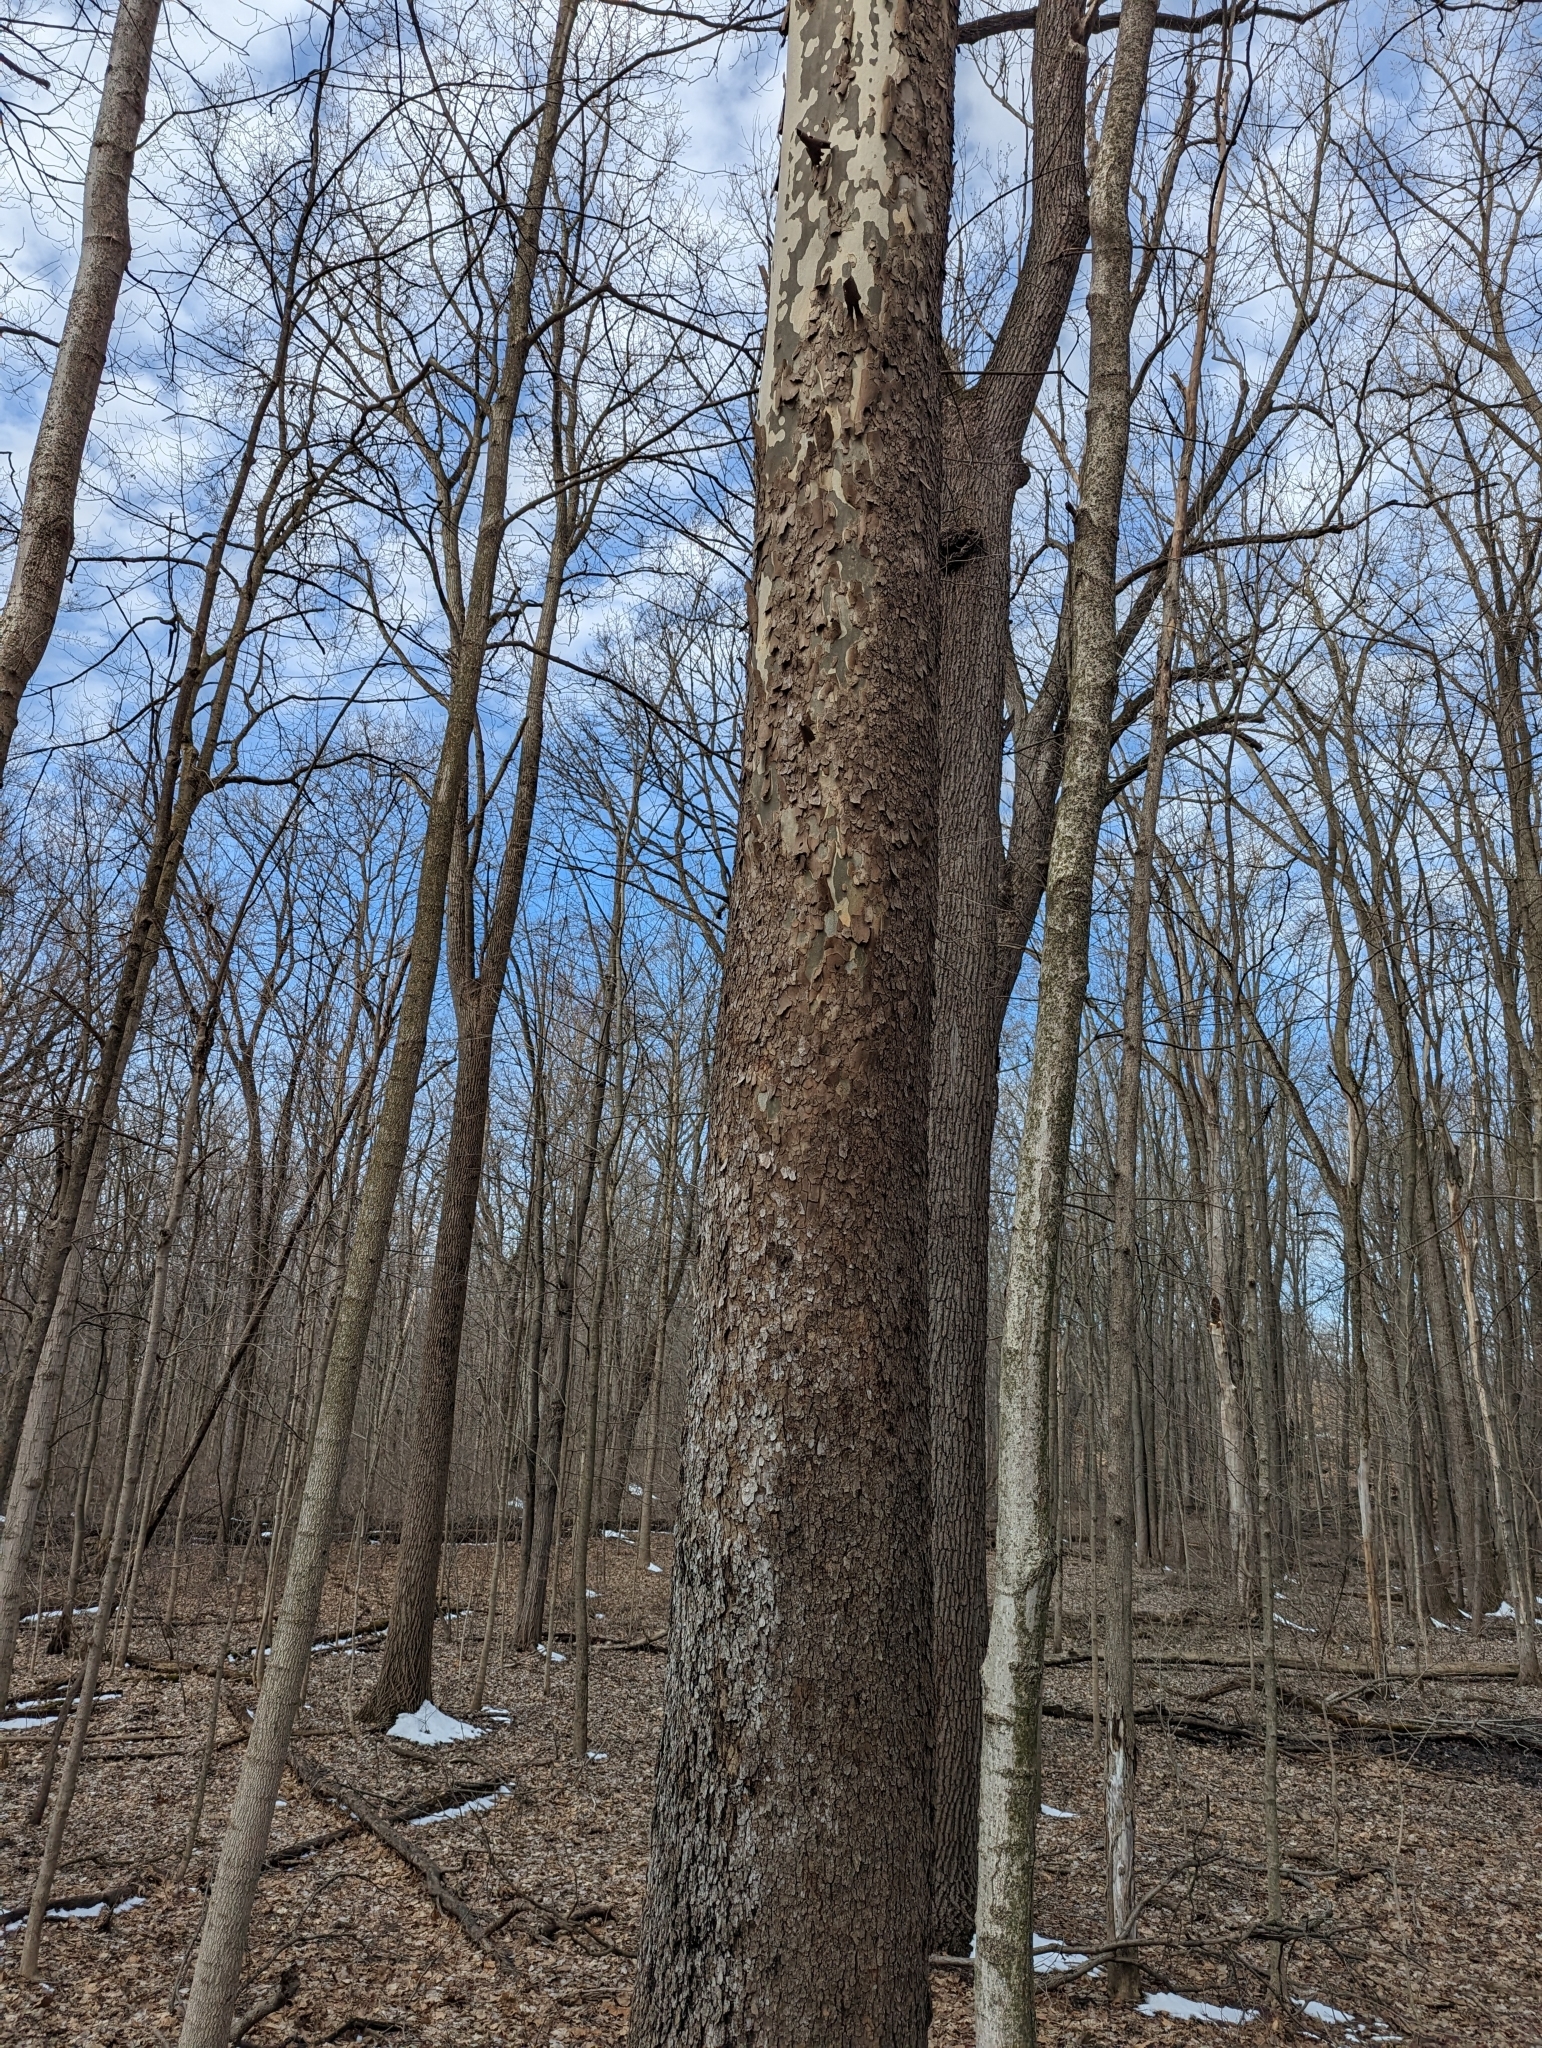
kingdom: Plantae
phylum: Tracheophyta
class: Magnoliopsida
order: Proteales
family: Platanaceae
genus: Platanus
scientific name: Platanus occidentalis
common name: American sycamore
